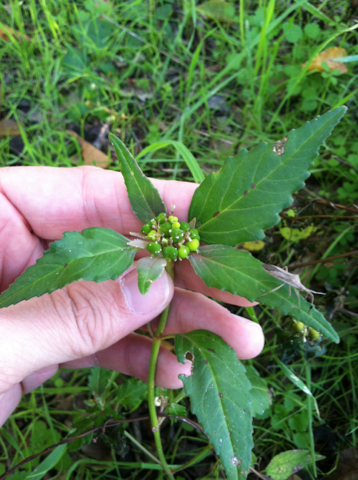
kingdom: Plantae
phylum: Tracheophyta
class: Magnoliopsida
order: Malpighiales
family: Euphorbiaceae
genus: Euphorbia
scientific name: Euphorbia dentata
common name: Dentate spurge
